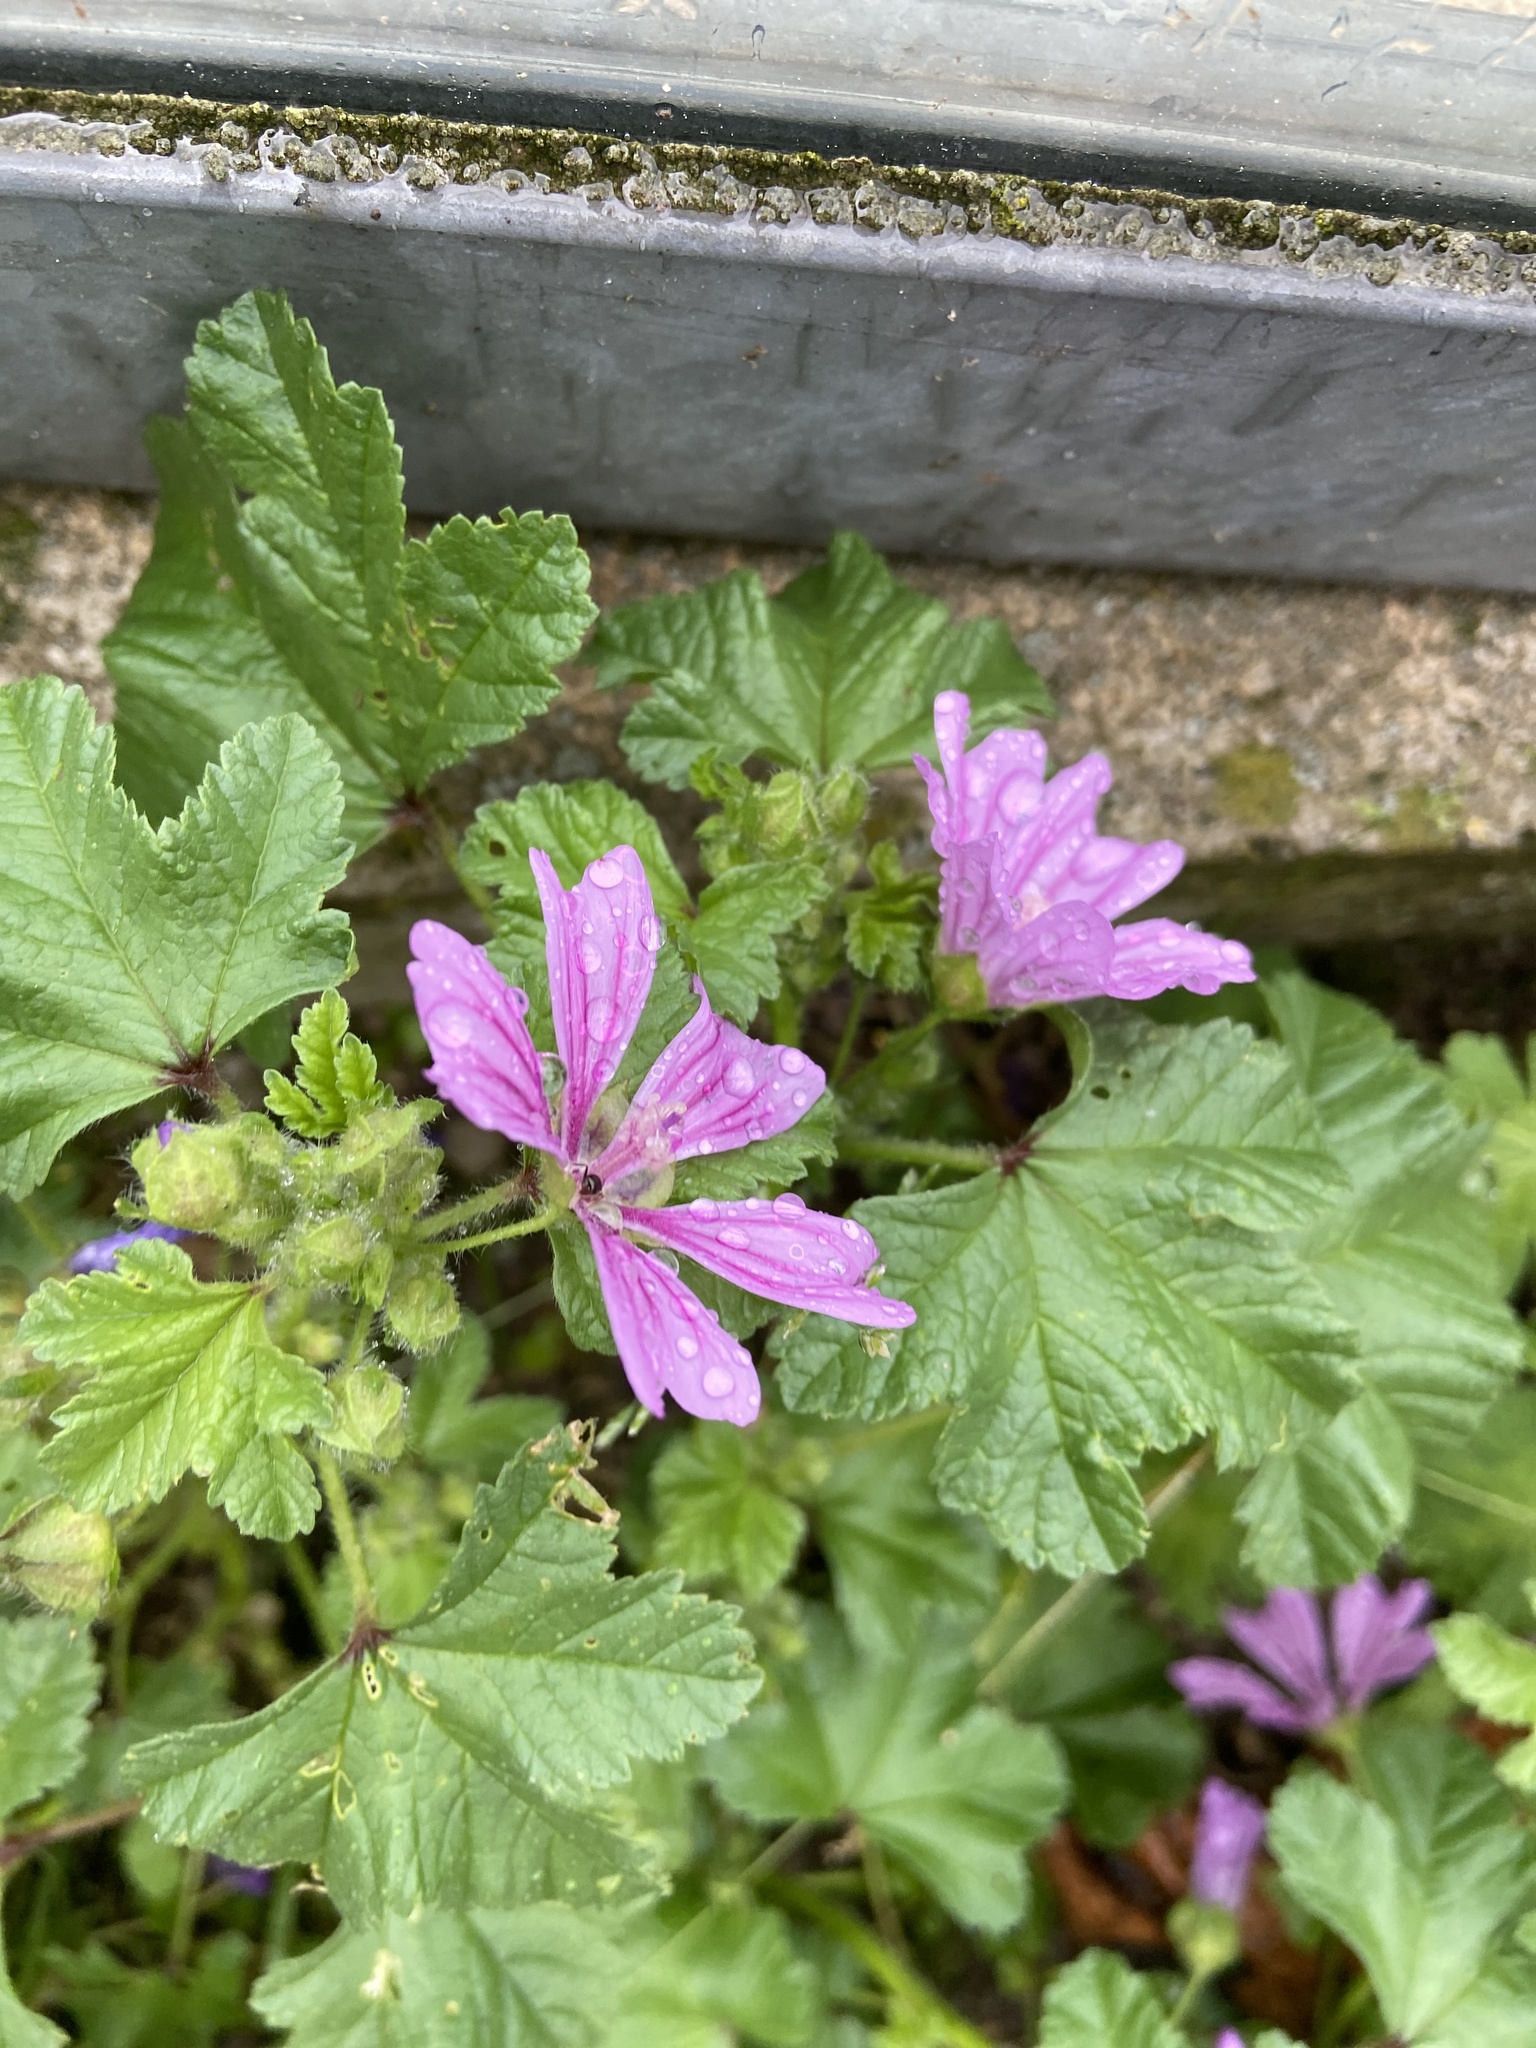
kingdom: Plantae
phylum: Tracheophyta
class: Magnoliopsida
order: Malvales
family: Malvaceae
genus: Malva
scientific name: Malva sylvestris
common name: Common mallow
